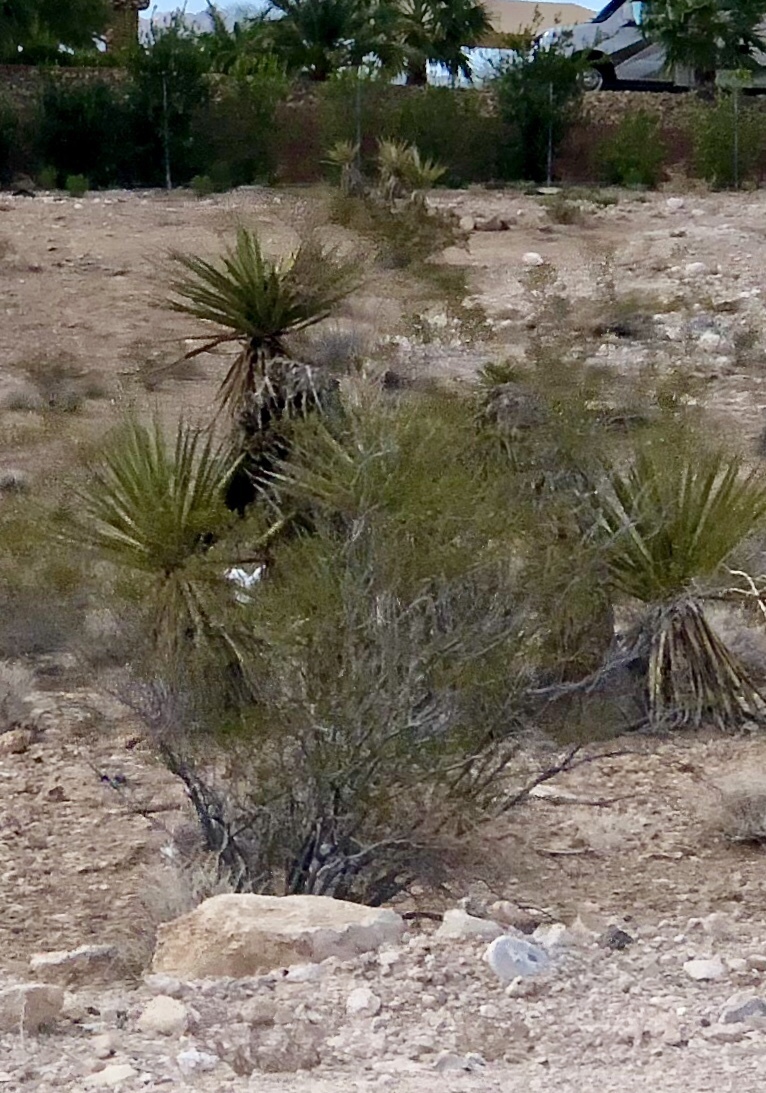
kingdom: Plantae
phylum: Tracheophyta
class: Magnoliopsida
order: Zygophyllales
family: Zygophyllaceae
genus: Larrea
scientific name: Larrea tridentata
